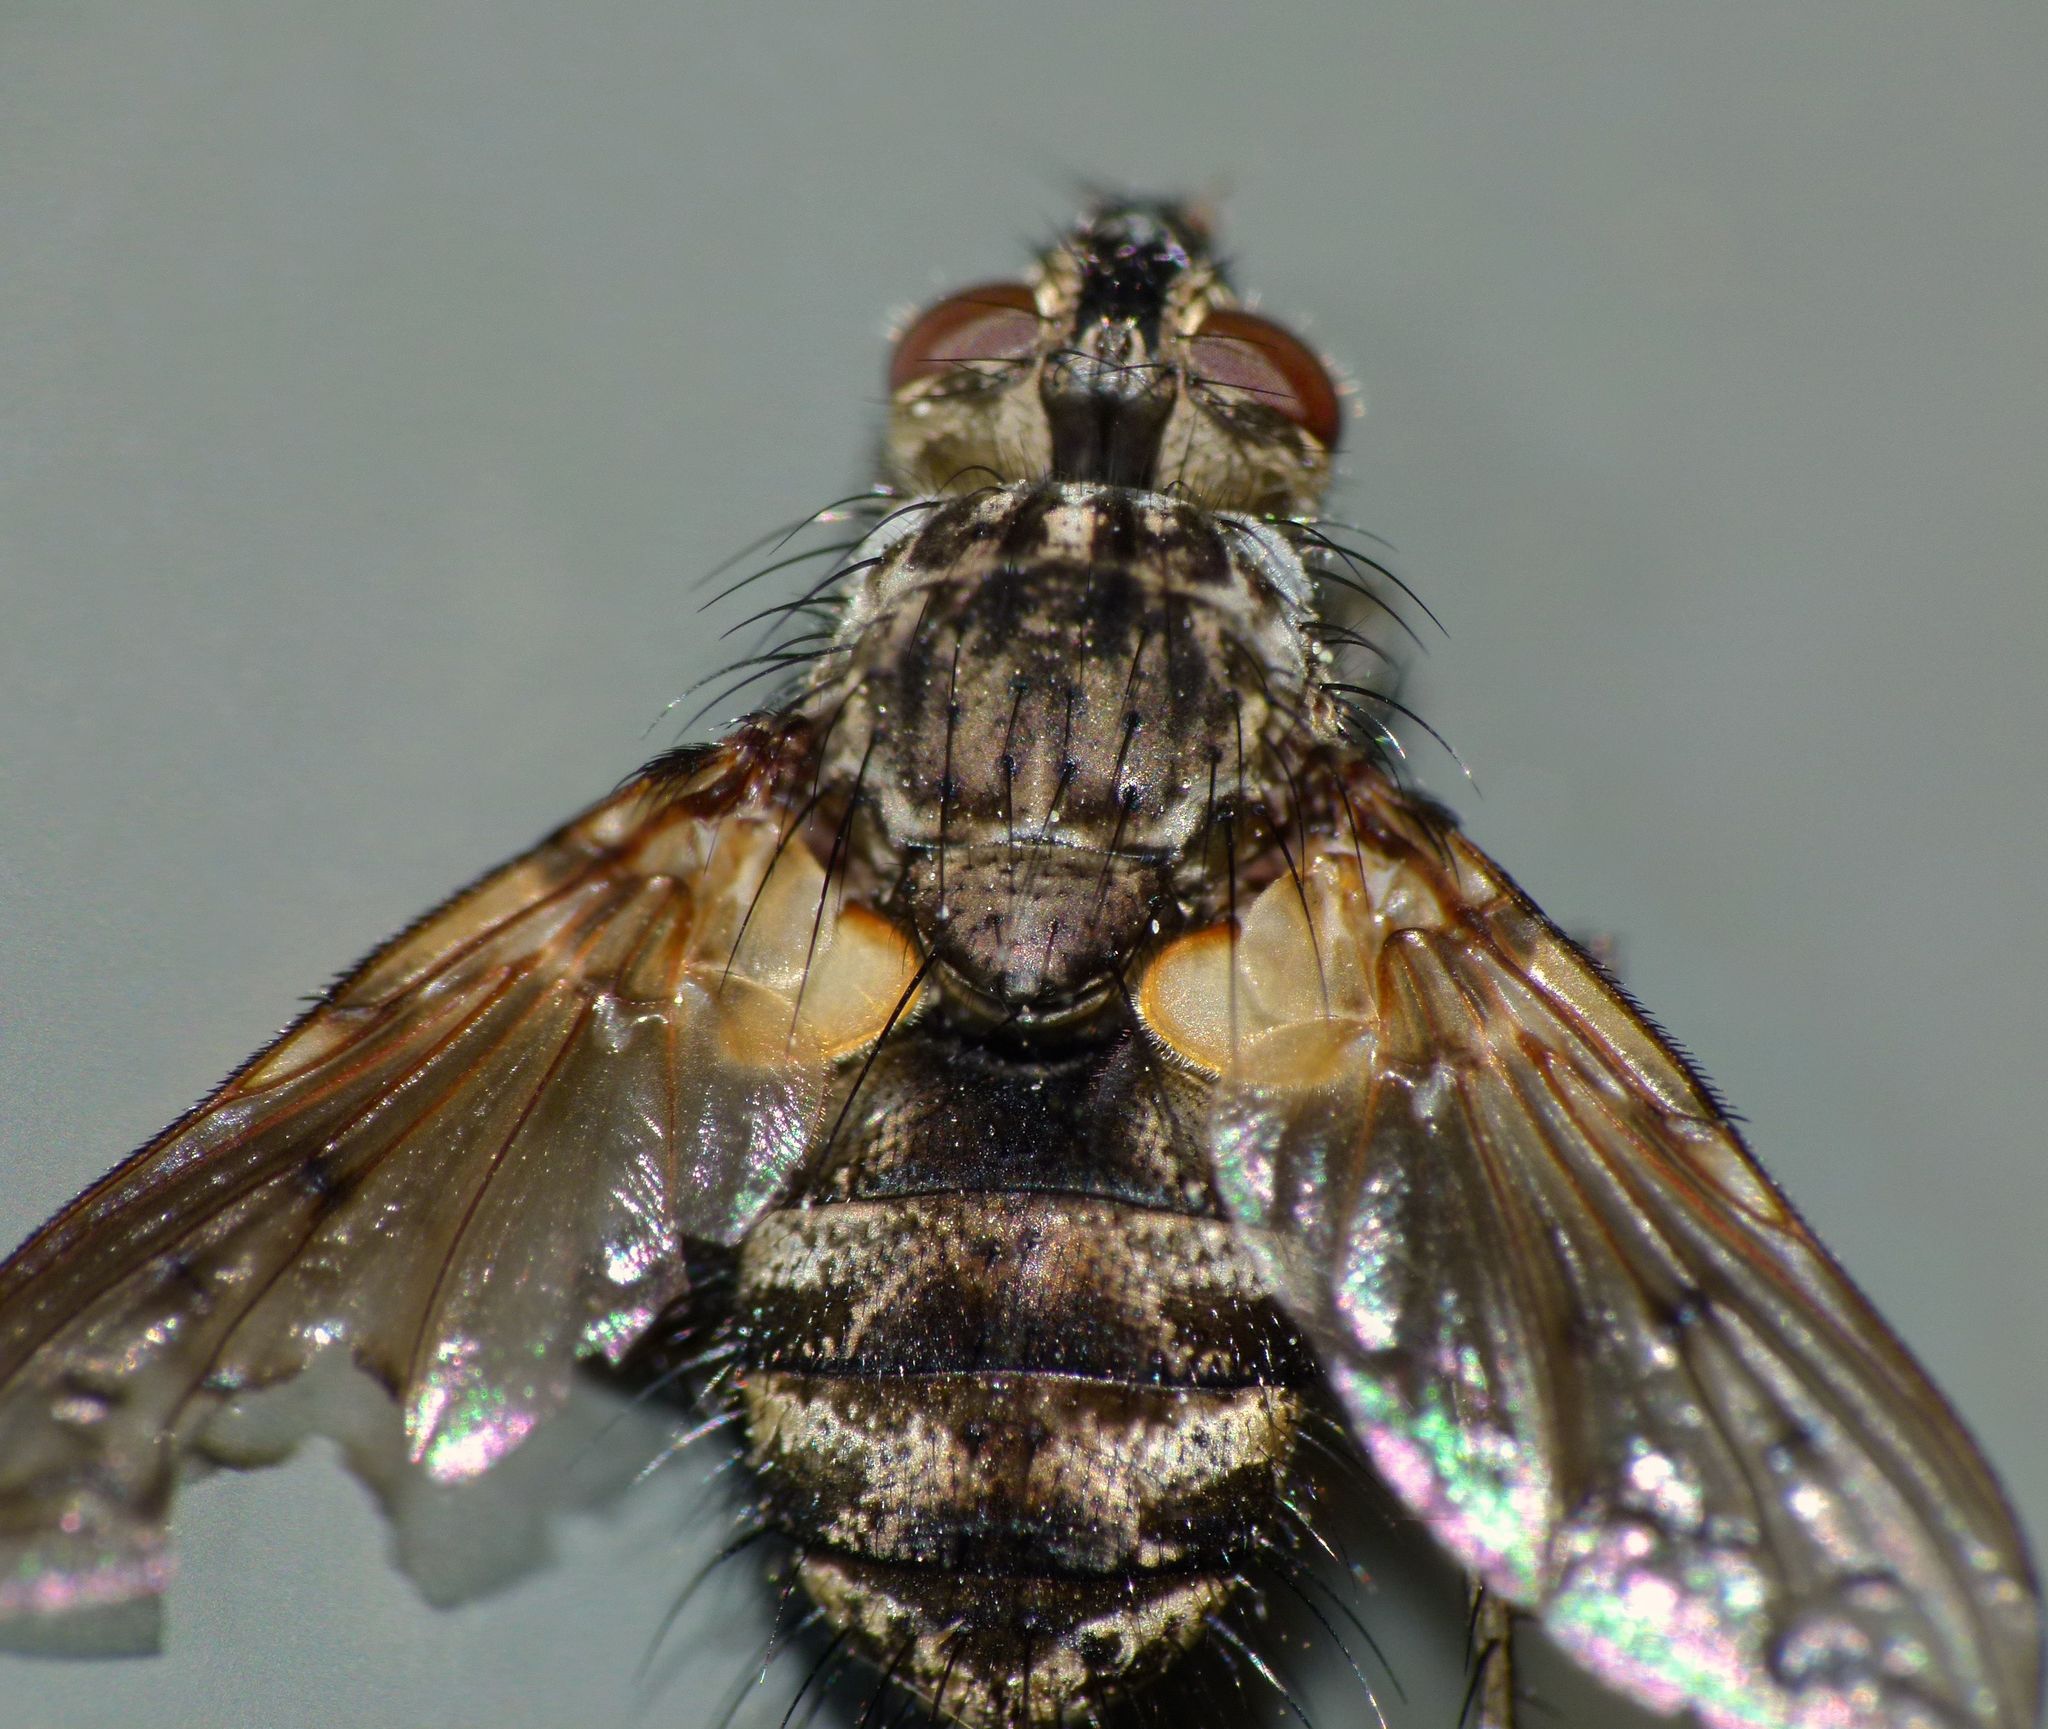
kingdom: Animalia
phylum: Arthropoda
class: Insecta
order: Diptera
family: Tachinidae
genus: Mallochomacquartia
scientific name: Mallochomacquartia vexata
